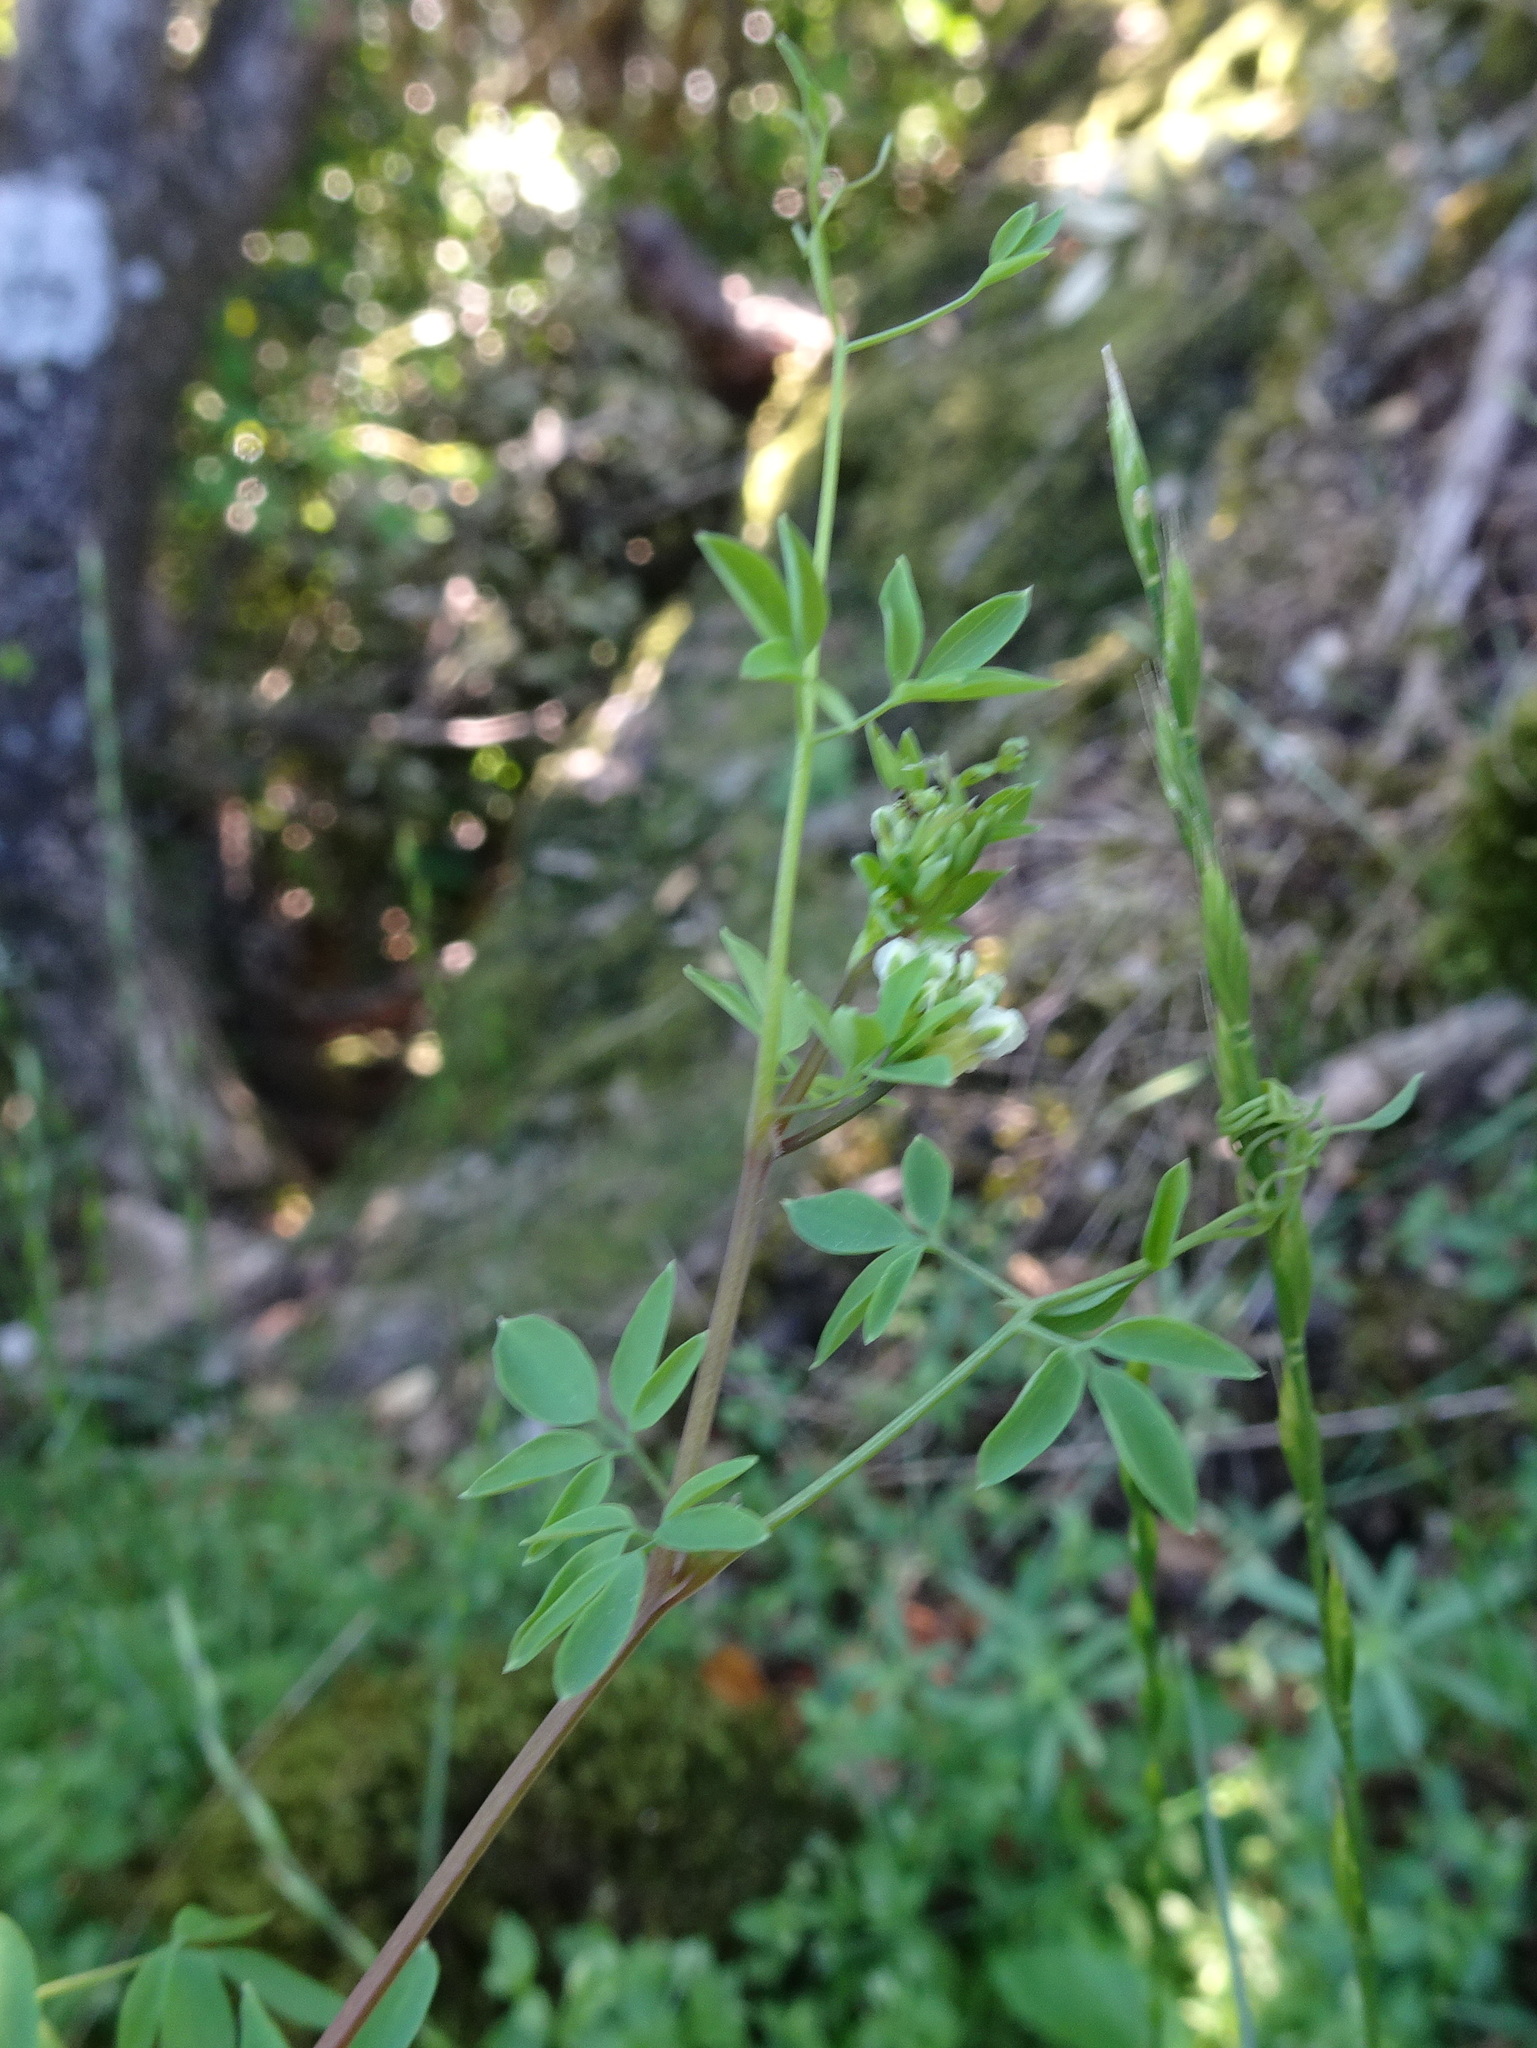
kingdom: Plantae
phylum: Tracheophyta
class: Magnoliopsida
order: Ranunculales
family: Papaveraceae
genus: Ceratocapnos
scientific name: Ceratocapnos claviculata
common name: Climbing corydalis
